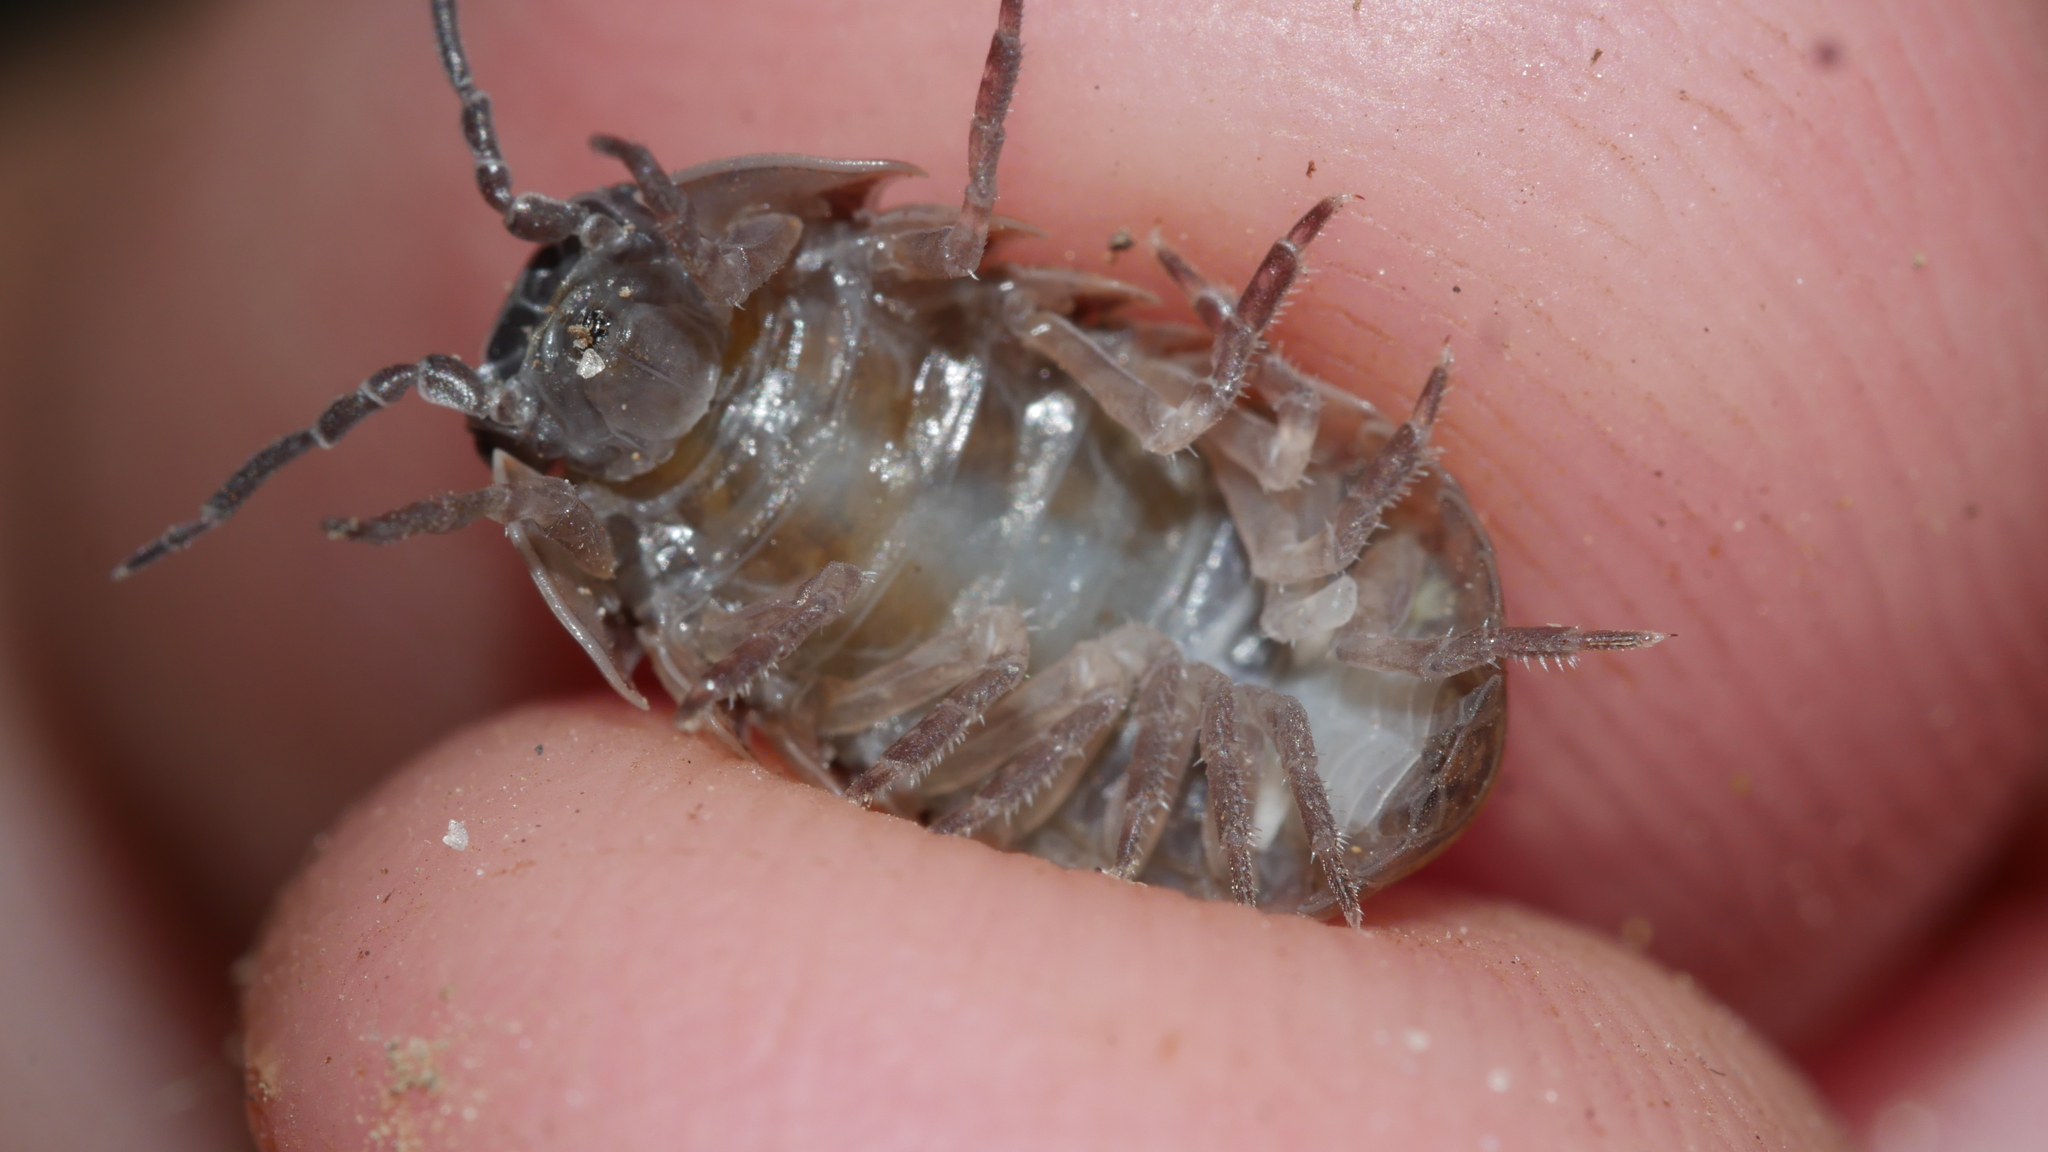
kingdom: Animalia
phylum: Arthropoda
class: Malacostraca
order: Isopoda
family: Armadillidiidae
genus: Armadillidium
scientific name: Armadillidium vulgare
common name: Common pill woodlouse
